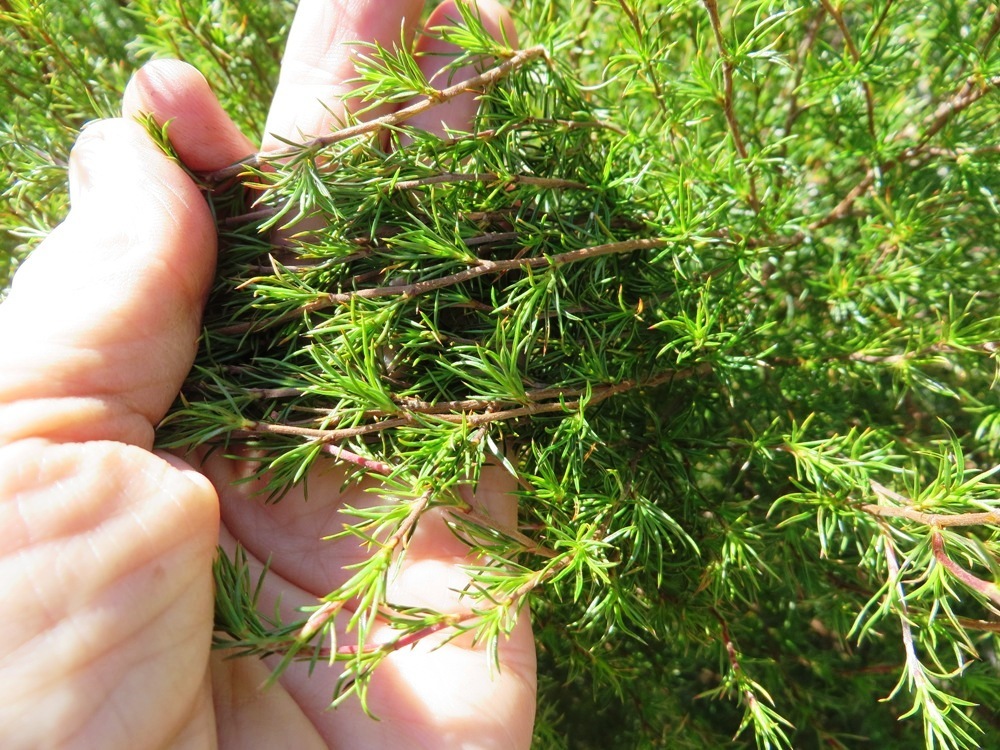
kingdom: Plantae
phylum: Tracheophyta
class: Magnoliopsida
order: Rosales
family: Rosaceae
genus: Cliffortia
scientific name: Cliffortia atrata
